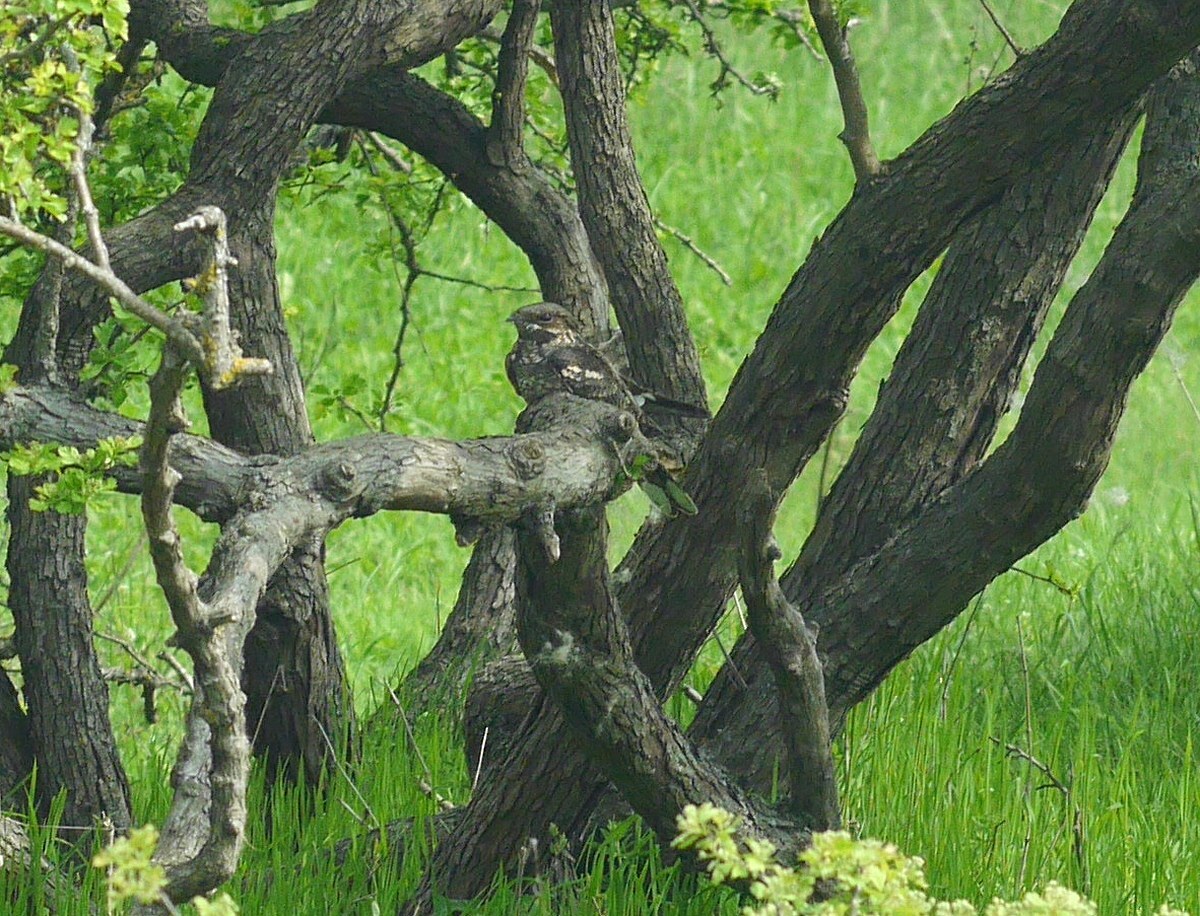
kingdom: Animalia
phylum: Chordata
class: Aves
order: Caprimulgiformes
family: Caprimulgidae
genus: Caprimulgus
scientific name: Caprimulgus europaeus
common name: European nightjar
